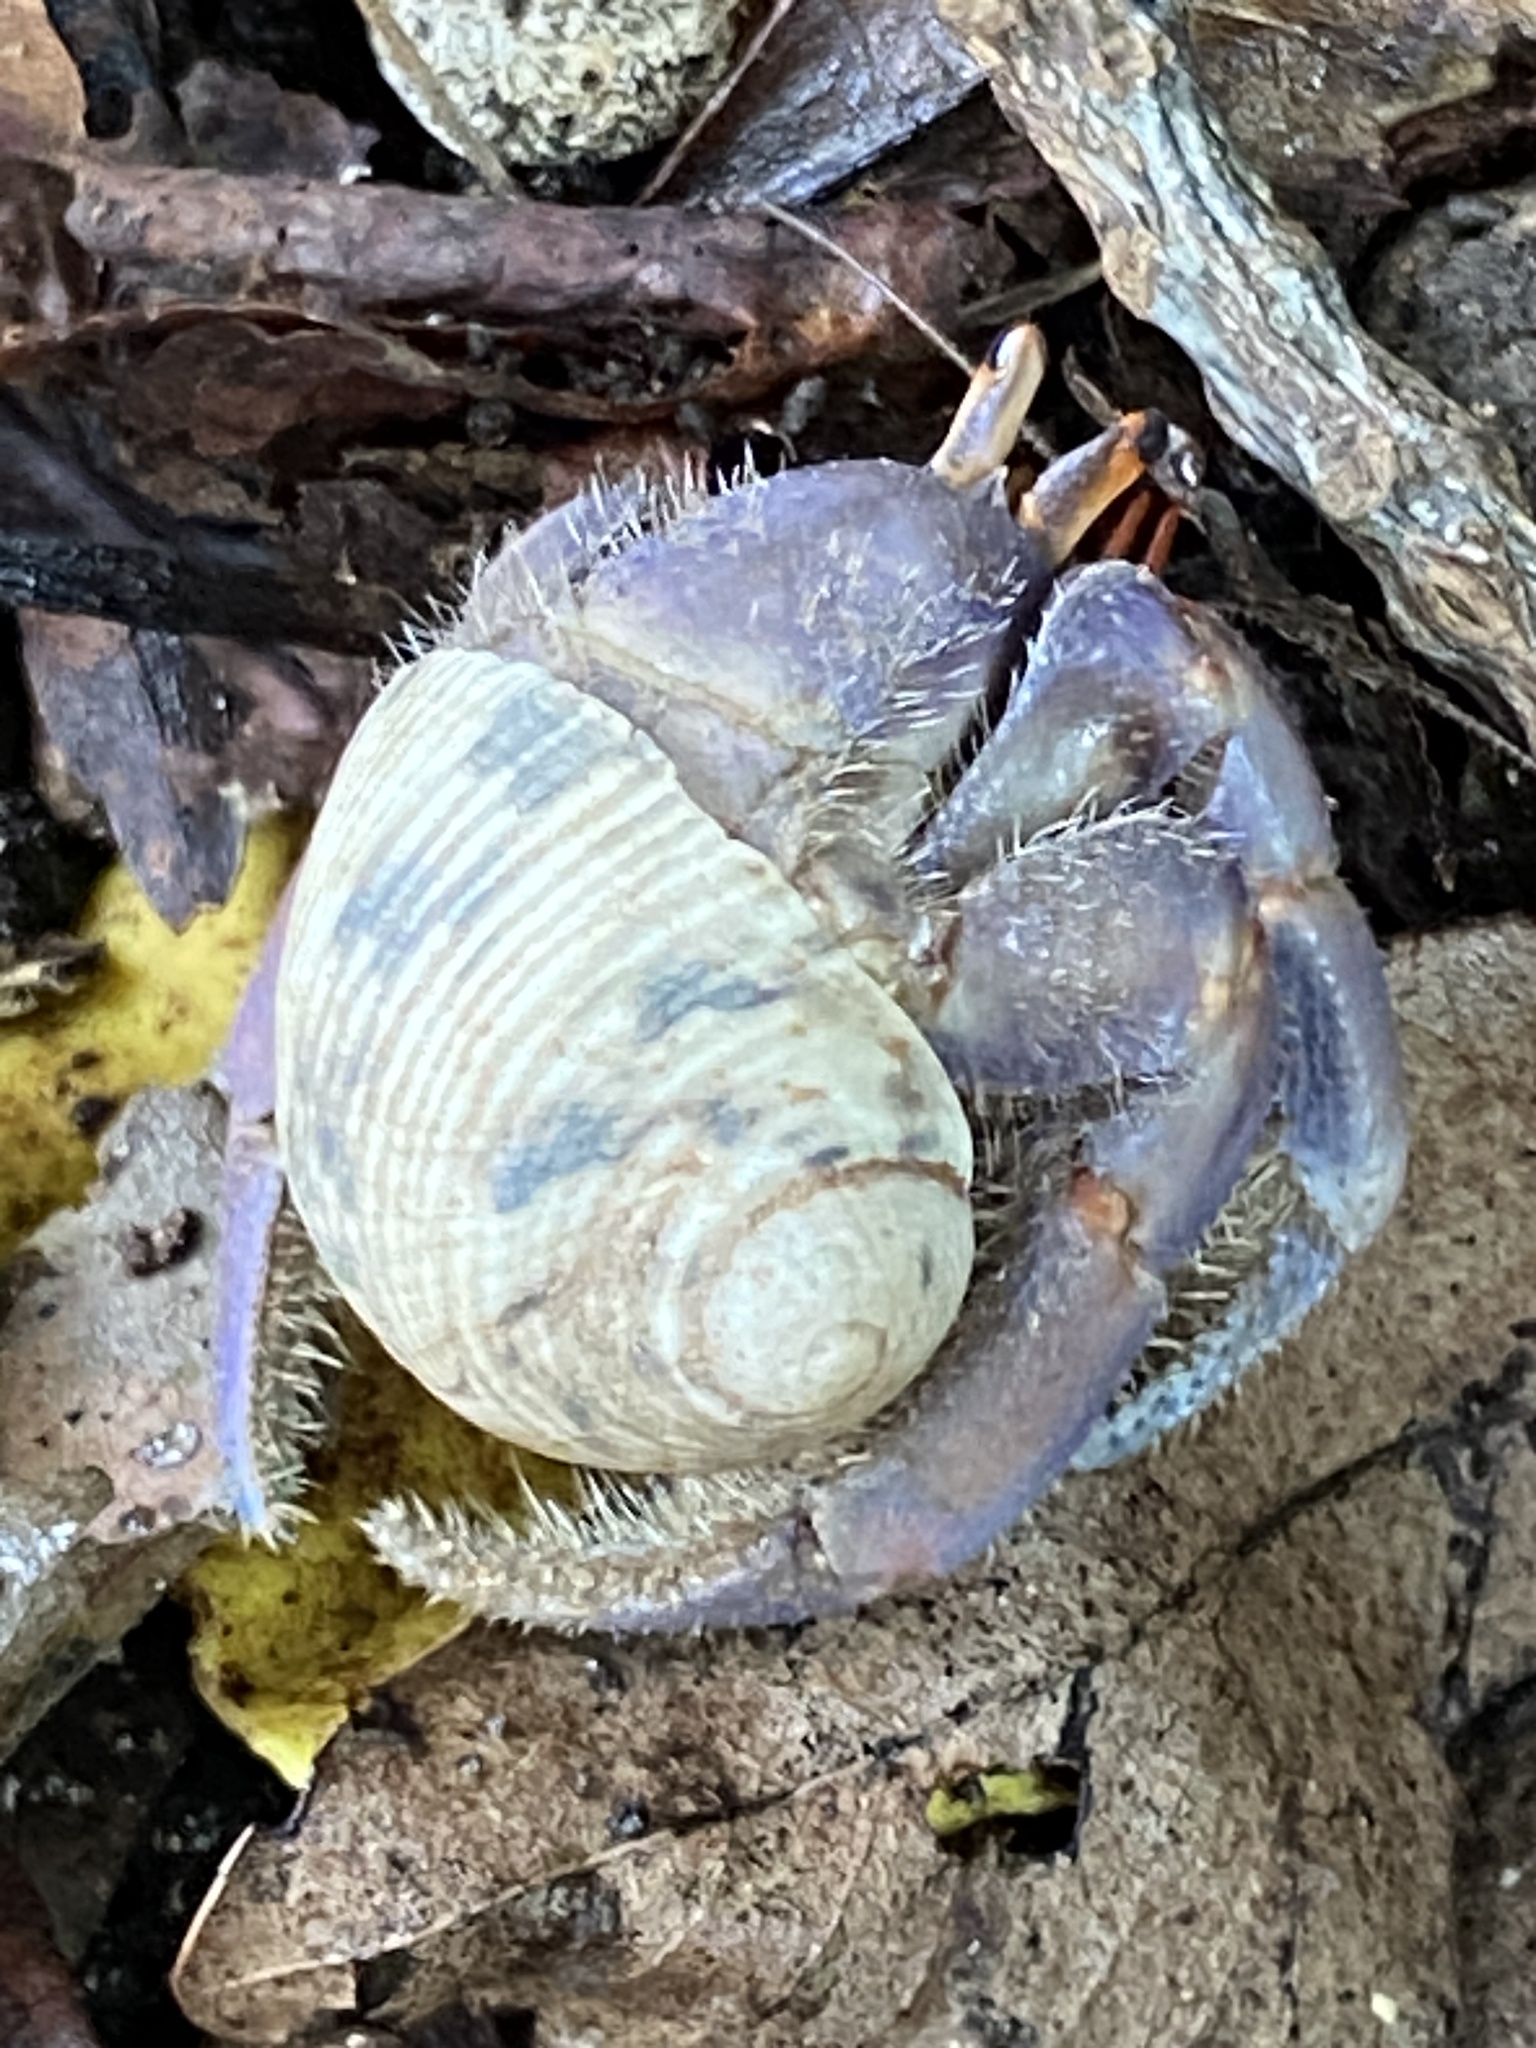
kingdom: Animalia
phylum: Arthropoda
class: Malacostraca
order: Decapoda
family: Coenobitidae
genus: Coenobita
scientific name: Coenobita purpureus
